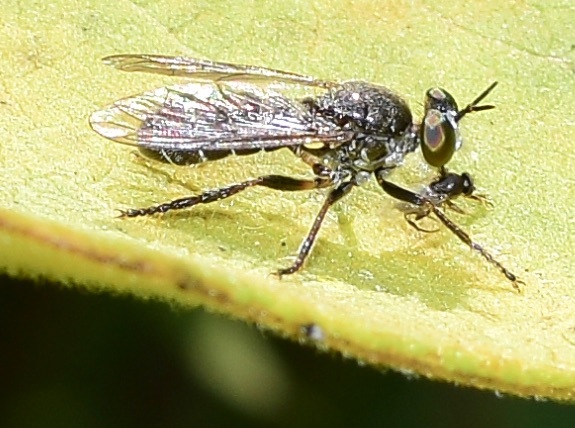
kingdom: Animalia
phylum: Arthropoda
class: Insecta
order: Diptera
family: Asilidae
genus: Atomosia
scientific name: Atomosia puella
